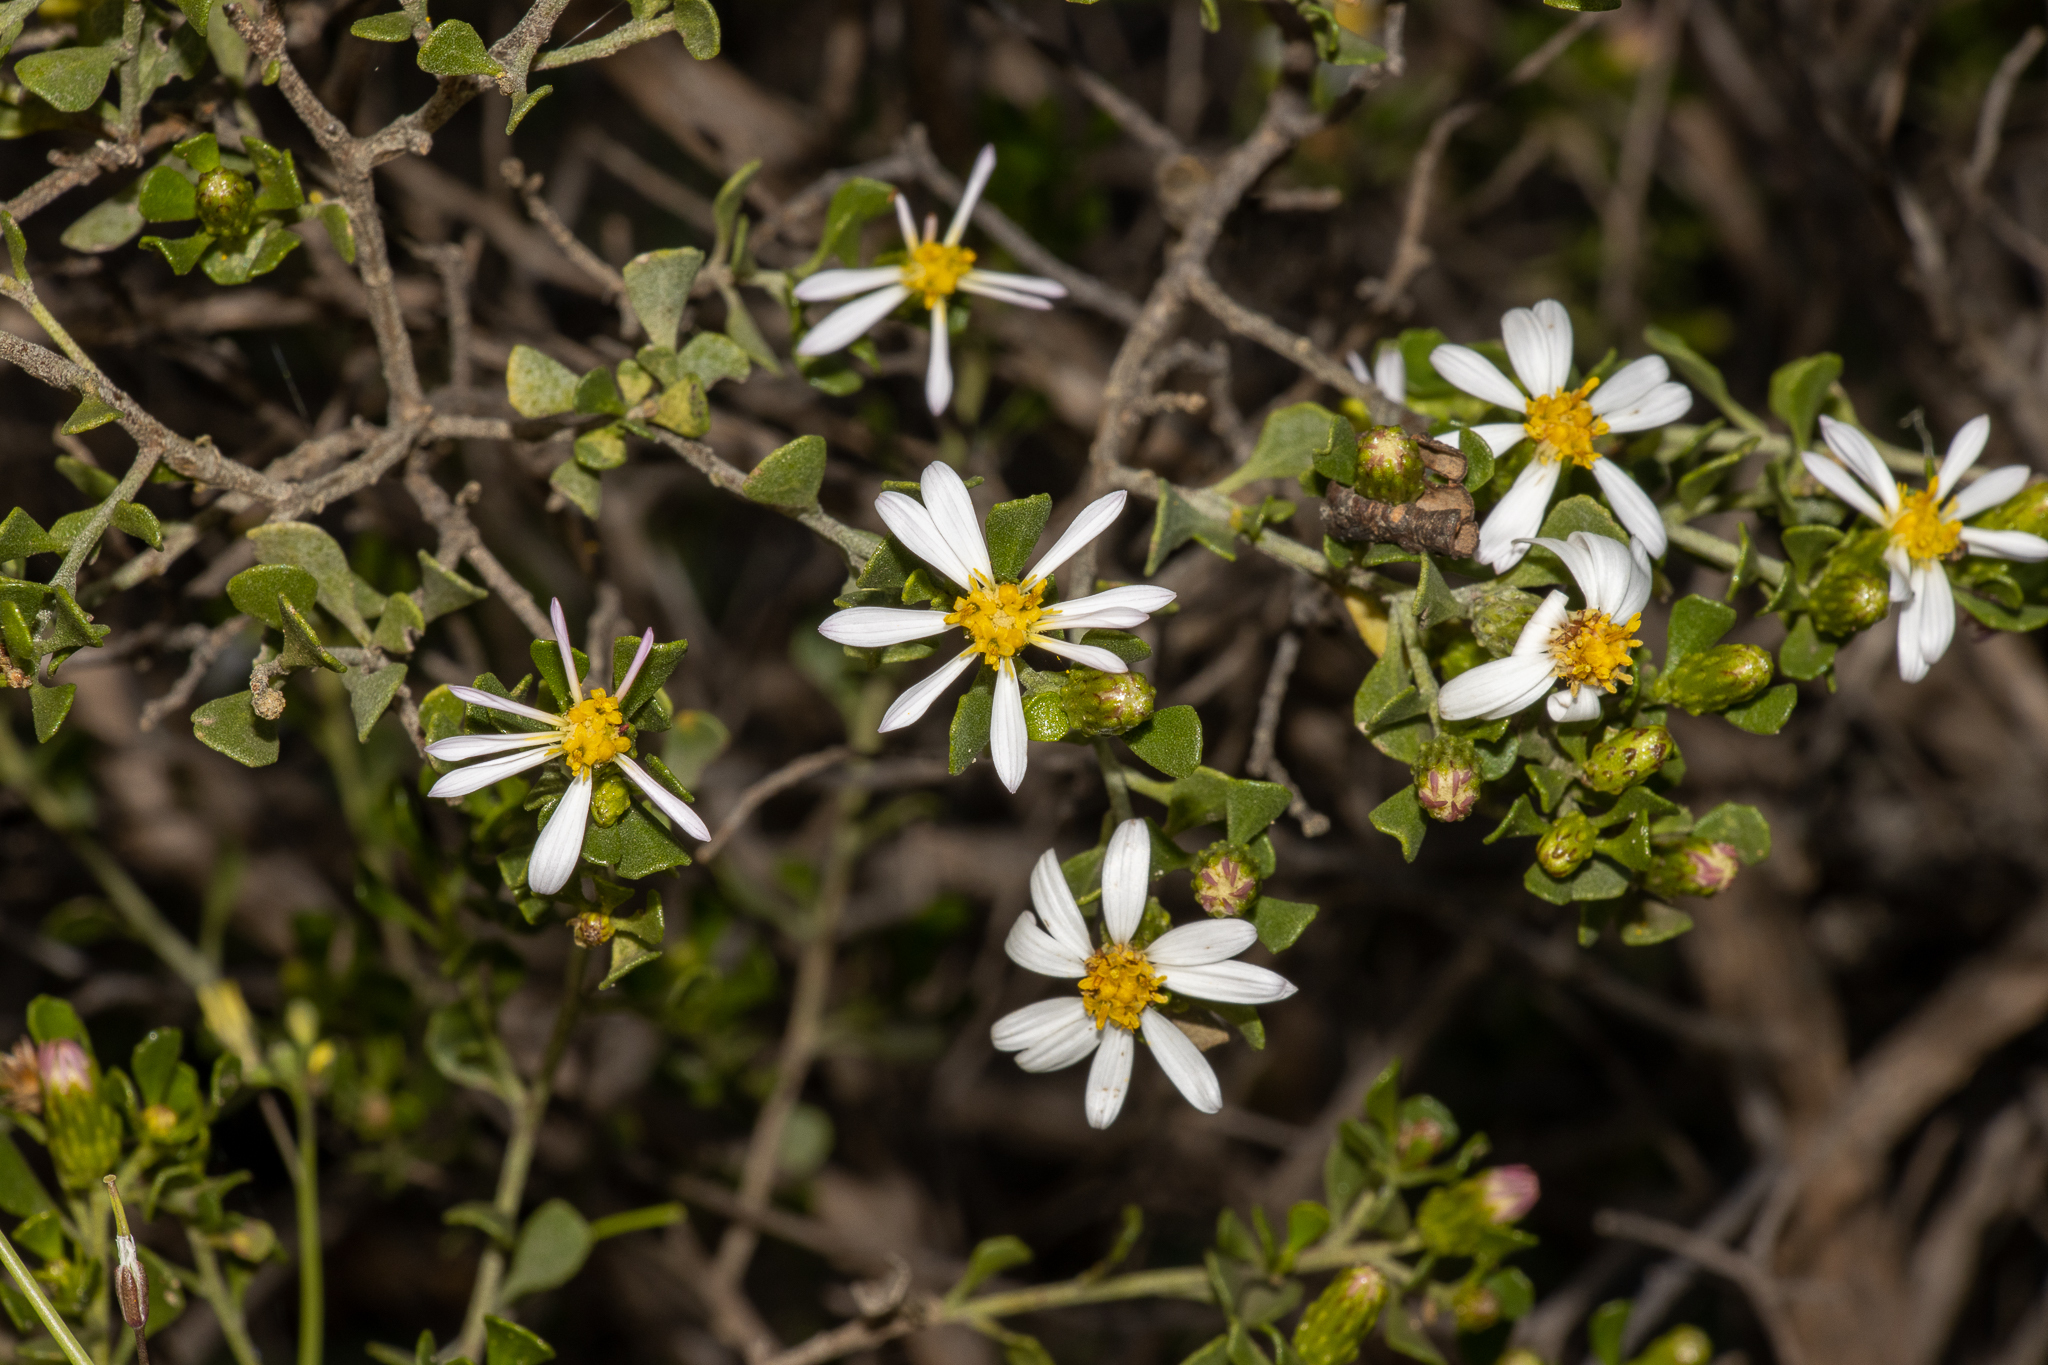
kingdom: Plantae
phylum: Tracheophyta
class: Magnoliopsida
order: Asterales
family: Asteraceae
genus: Walsholaria
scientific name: Walsholaria muelleri
